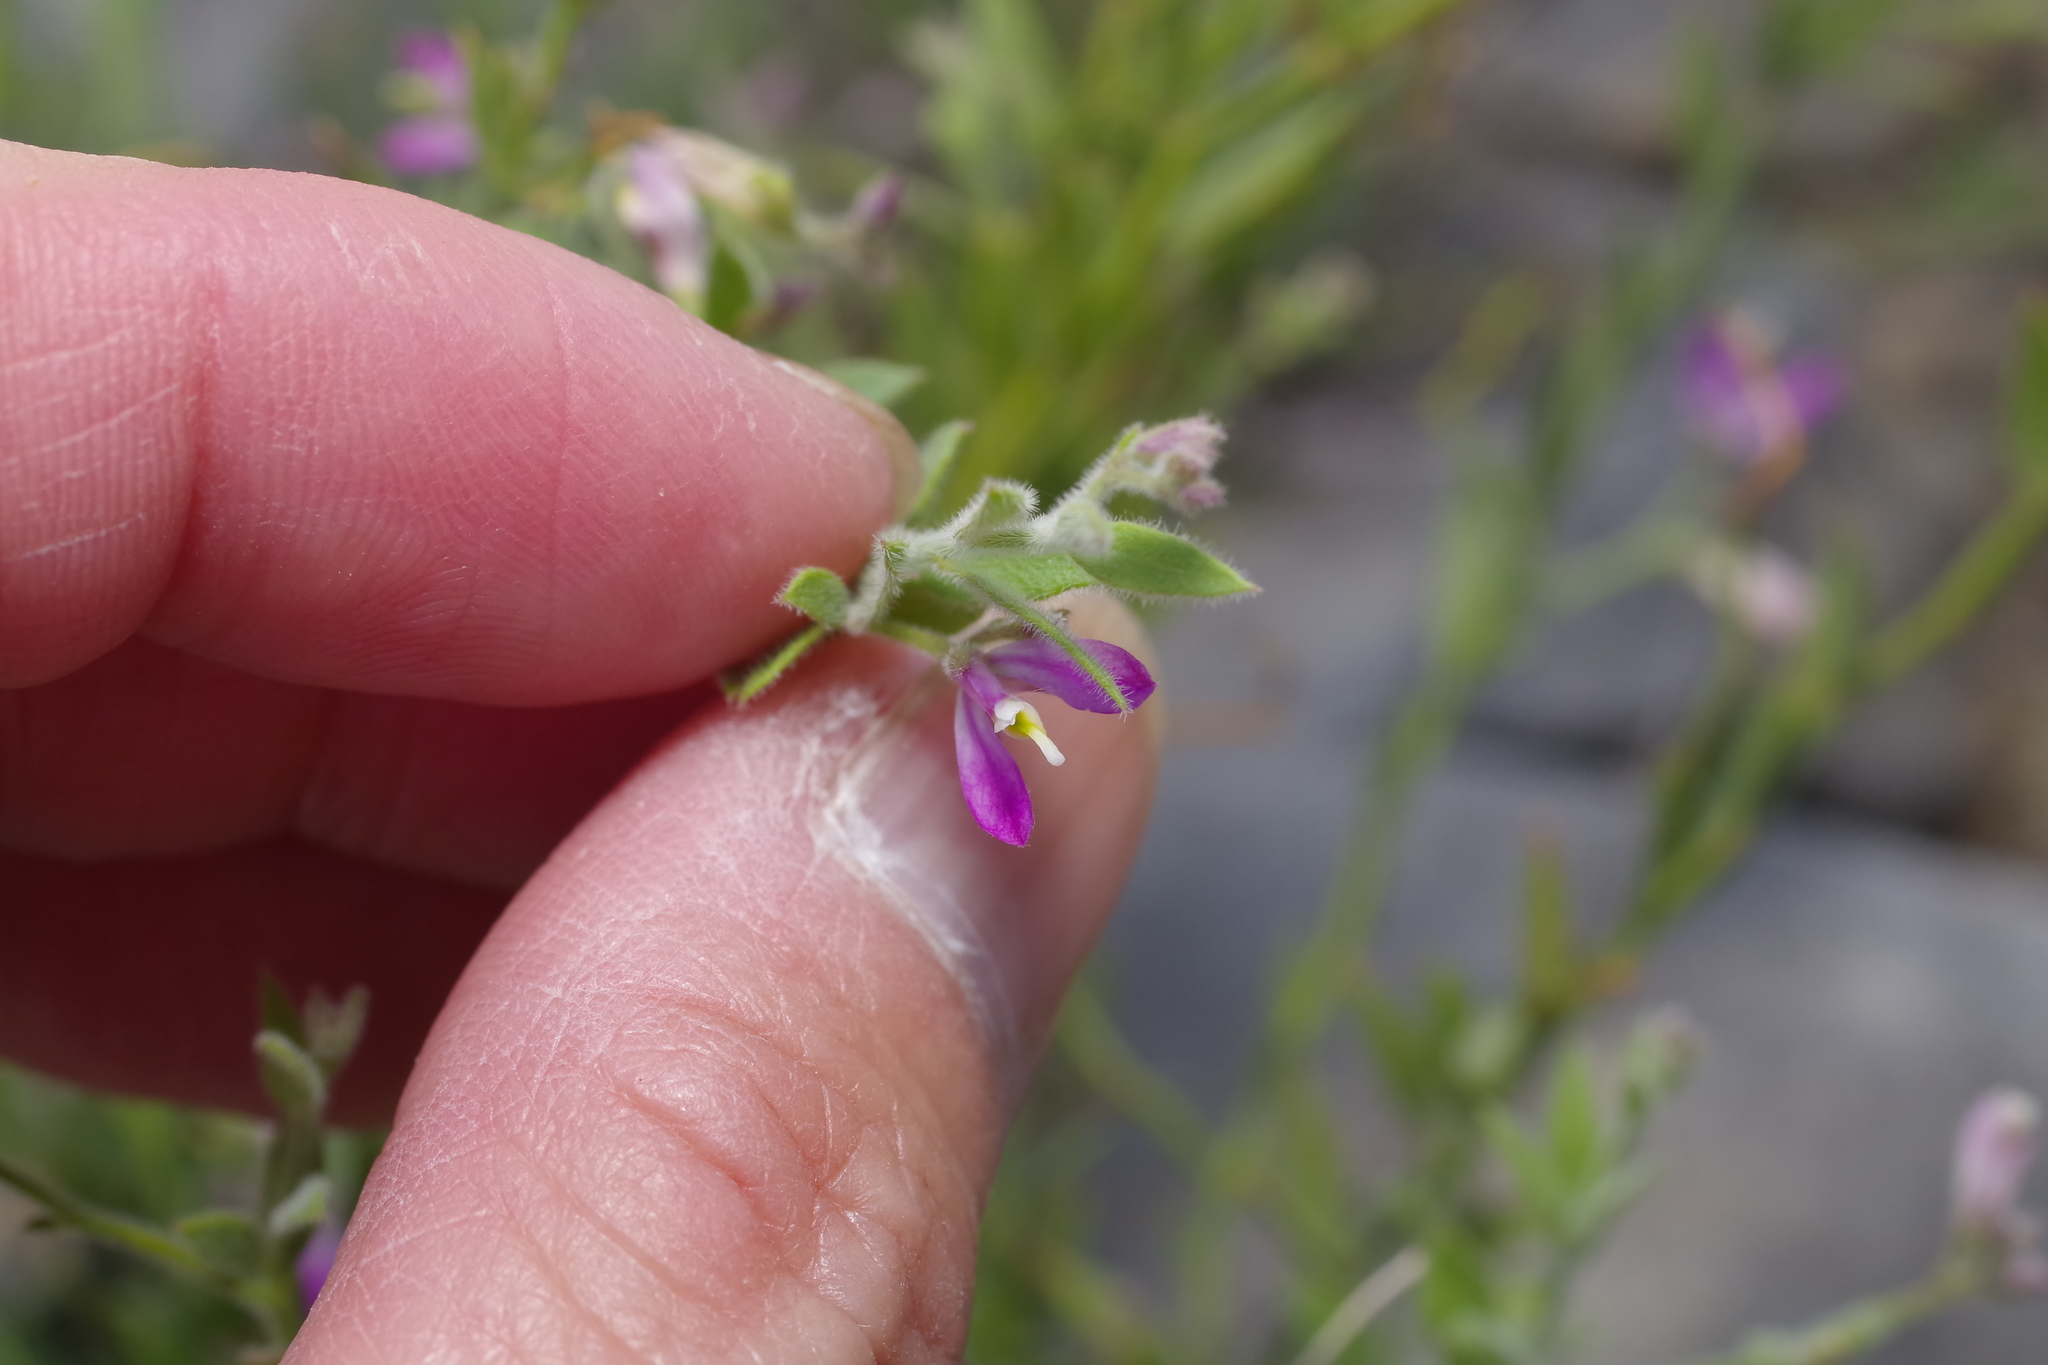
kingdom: Plantae
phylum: Tracheophyta
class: Magnoliopsida
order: Fabales
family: Polygalaceae
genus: Rhinotropis
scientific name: Rhinotropis lindheimeri
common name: Shrubby milkwort
